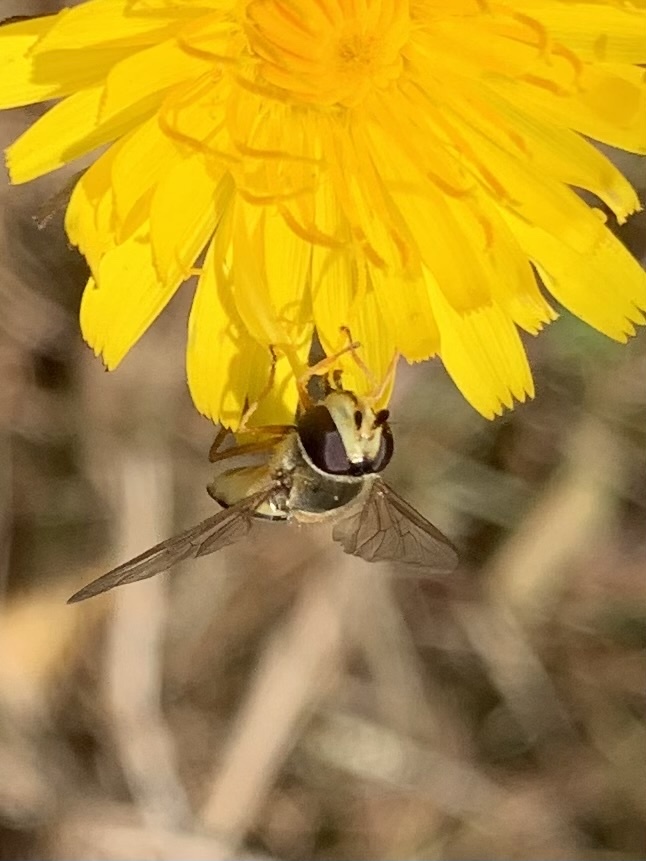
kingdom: Animalia
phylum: Arthropoda
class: Insecta
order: Diptera
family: Syrphidae
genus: Eupeodes
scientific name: Eupeodes corollae
